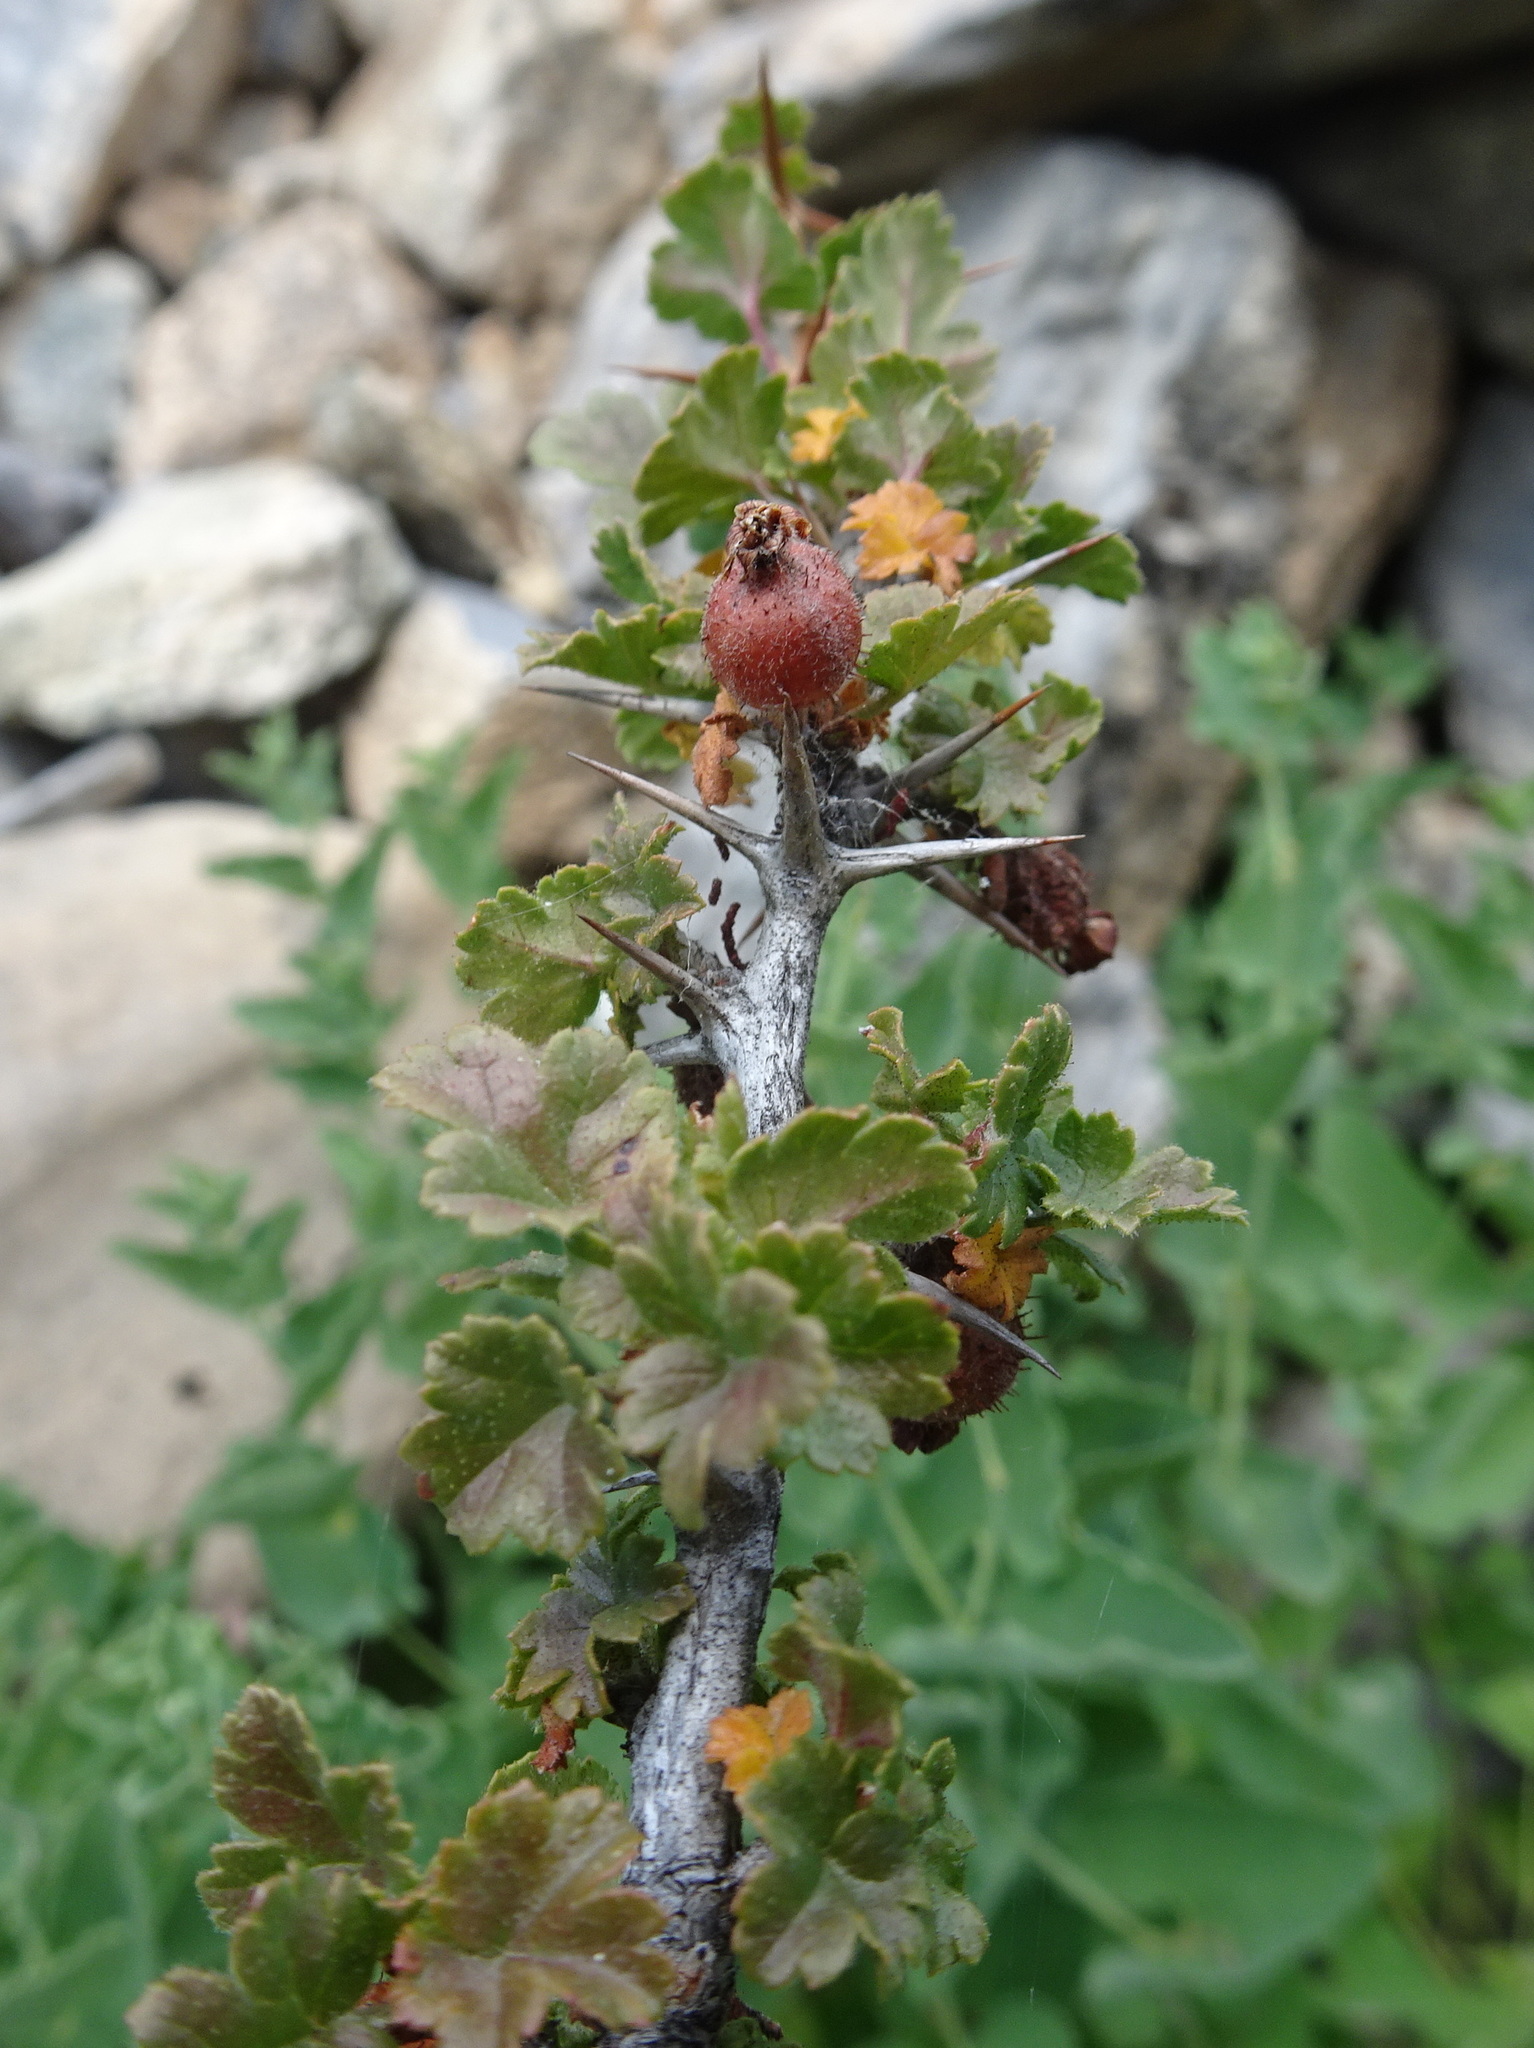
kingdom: Plantae
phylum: Tracheophyta
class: Magnoliopsida
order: Saxifragales
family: Grossulariaceae
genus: Ribes
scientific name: Ribes uva-crispa
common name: Gooseberry
